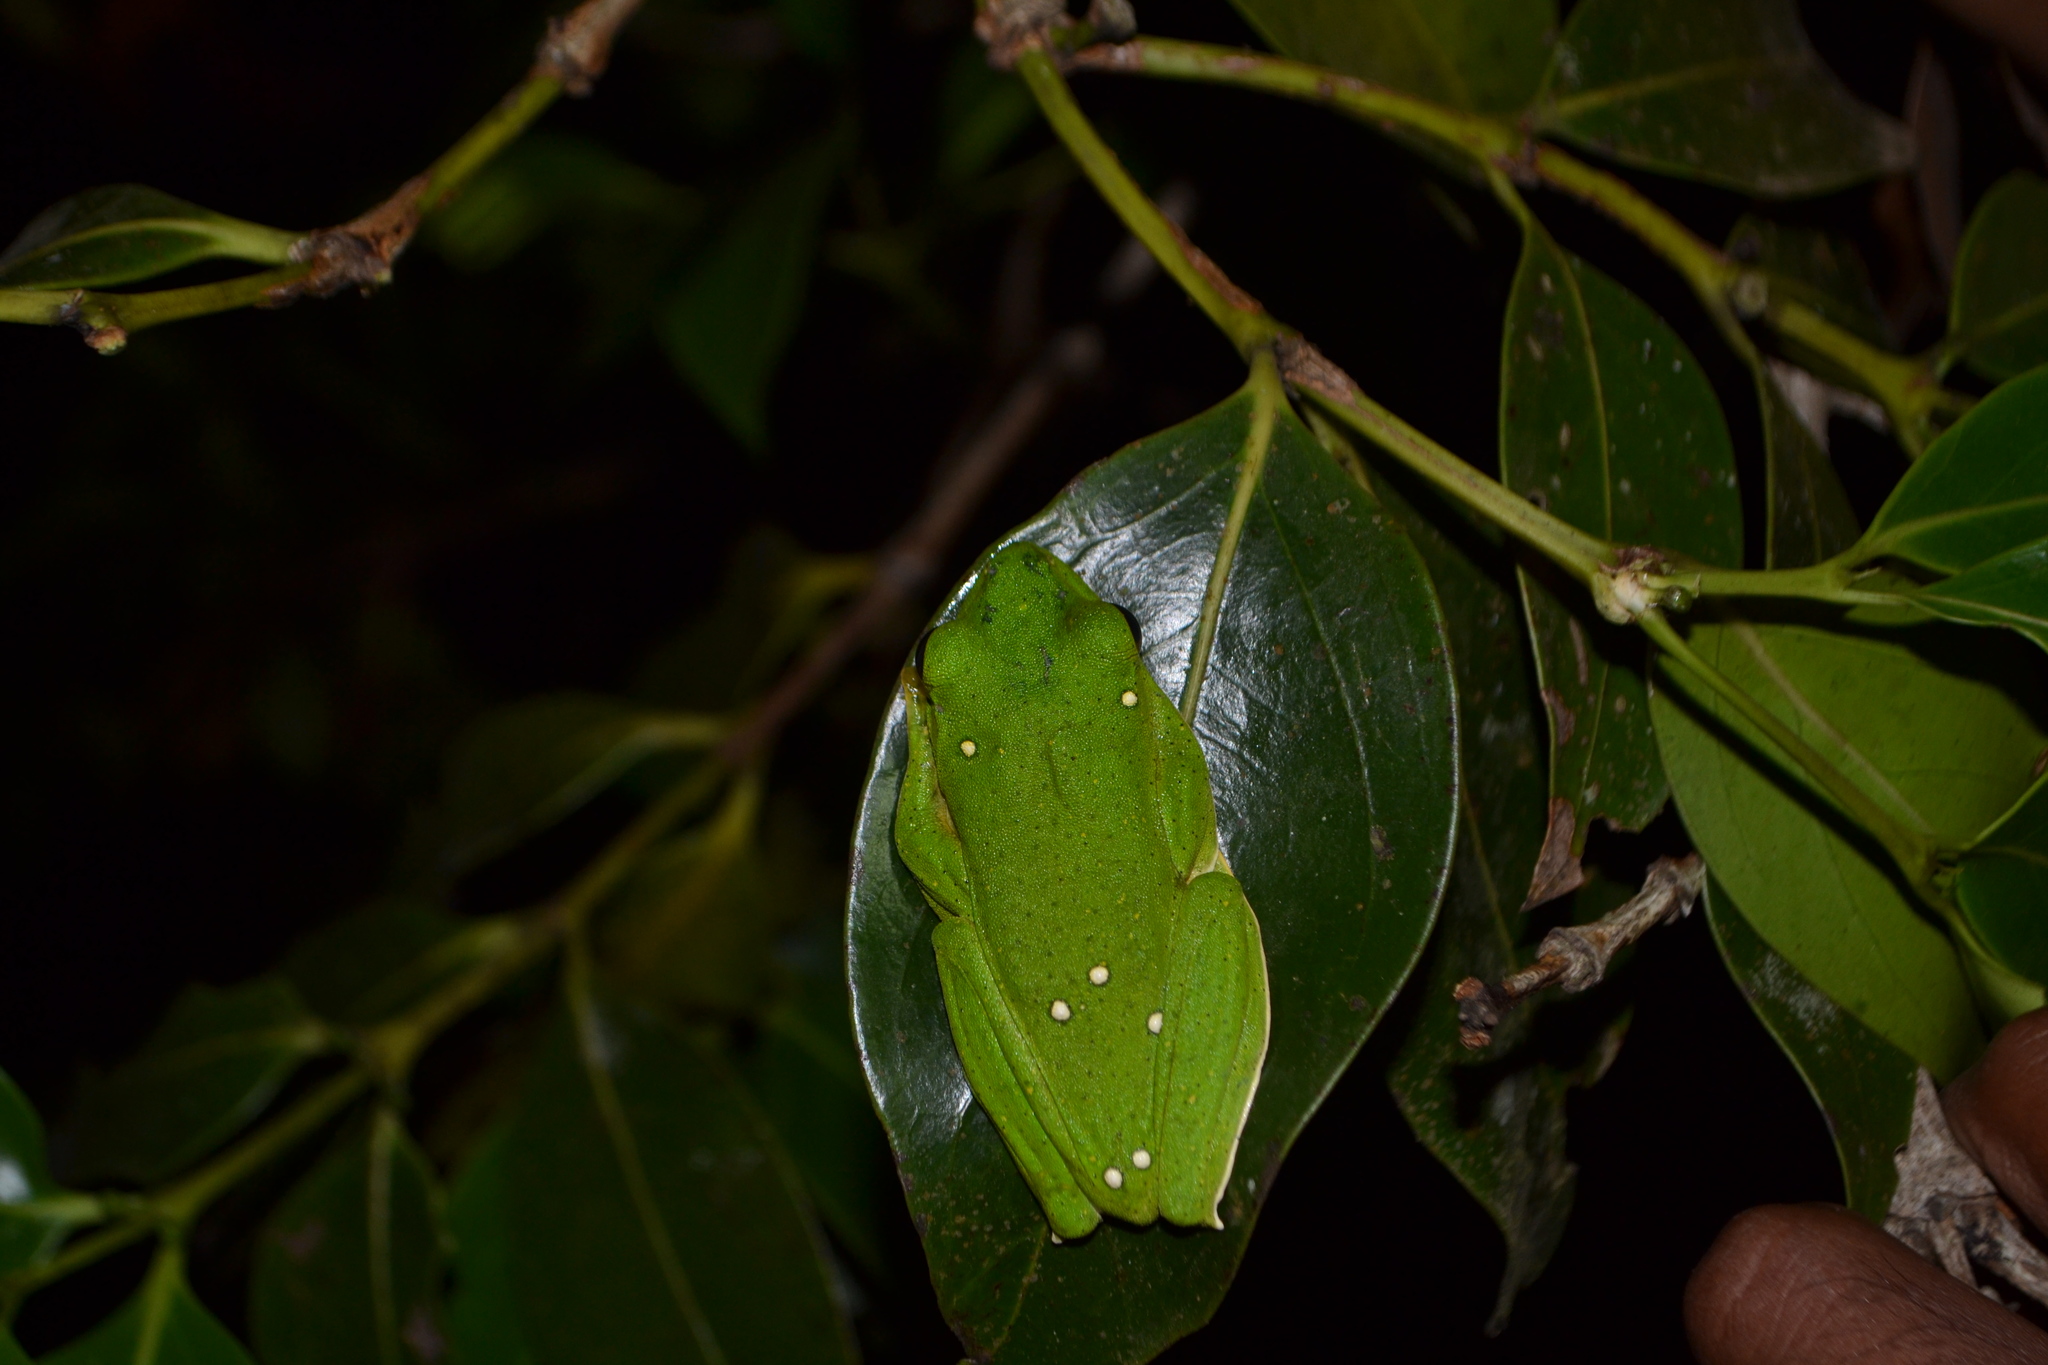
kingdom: Animalia
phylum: Chordata
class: Amphibia
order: Anura
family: Rhacophoridae
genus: Rhacophorus
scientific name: Rhacophorus malabaricus
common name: Malabar gliding frog
